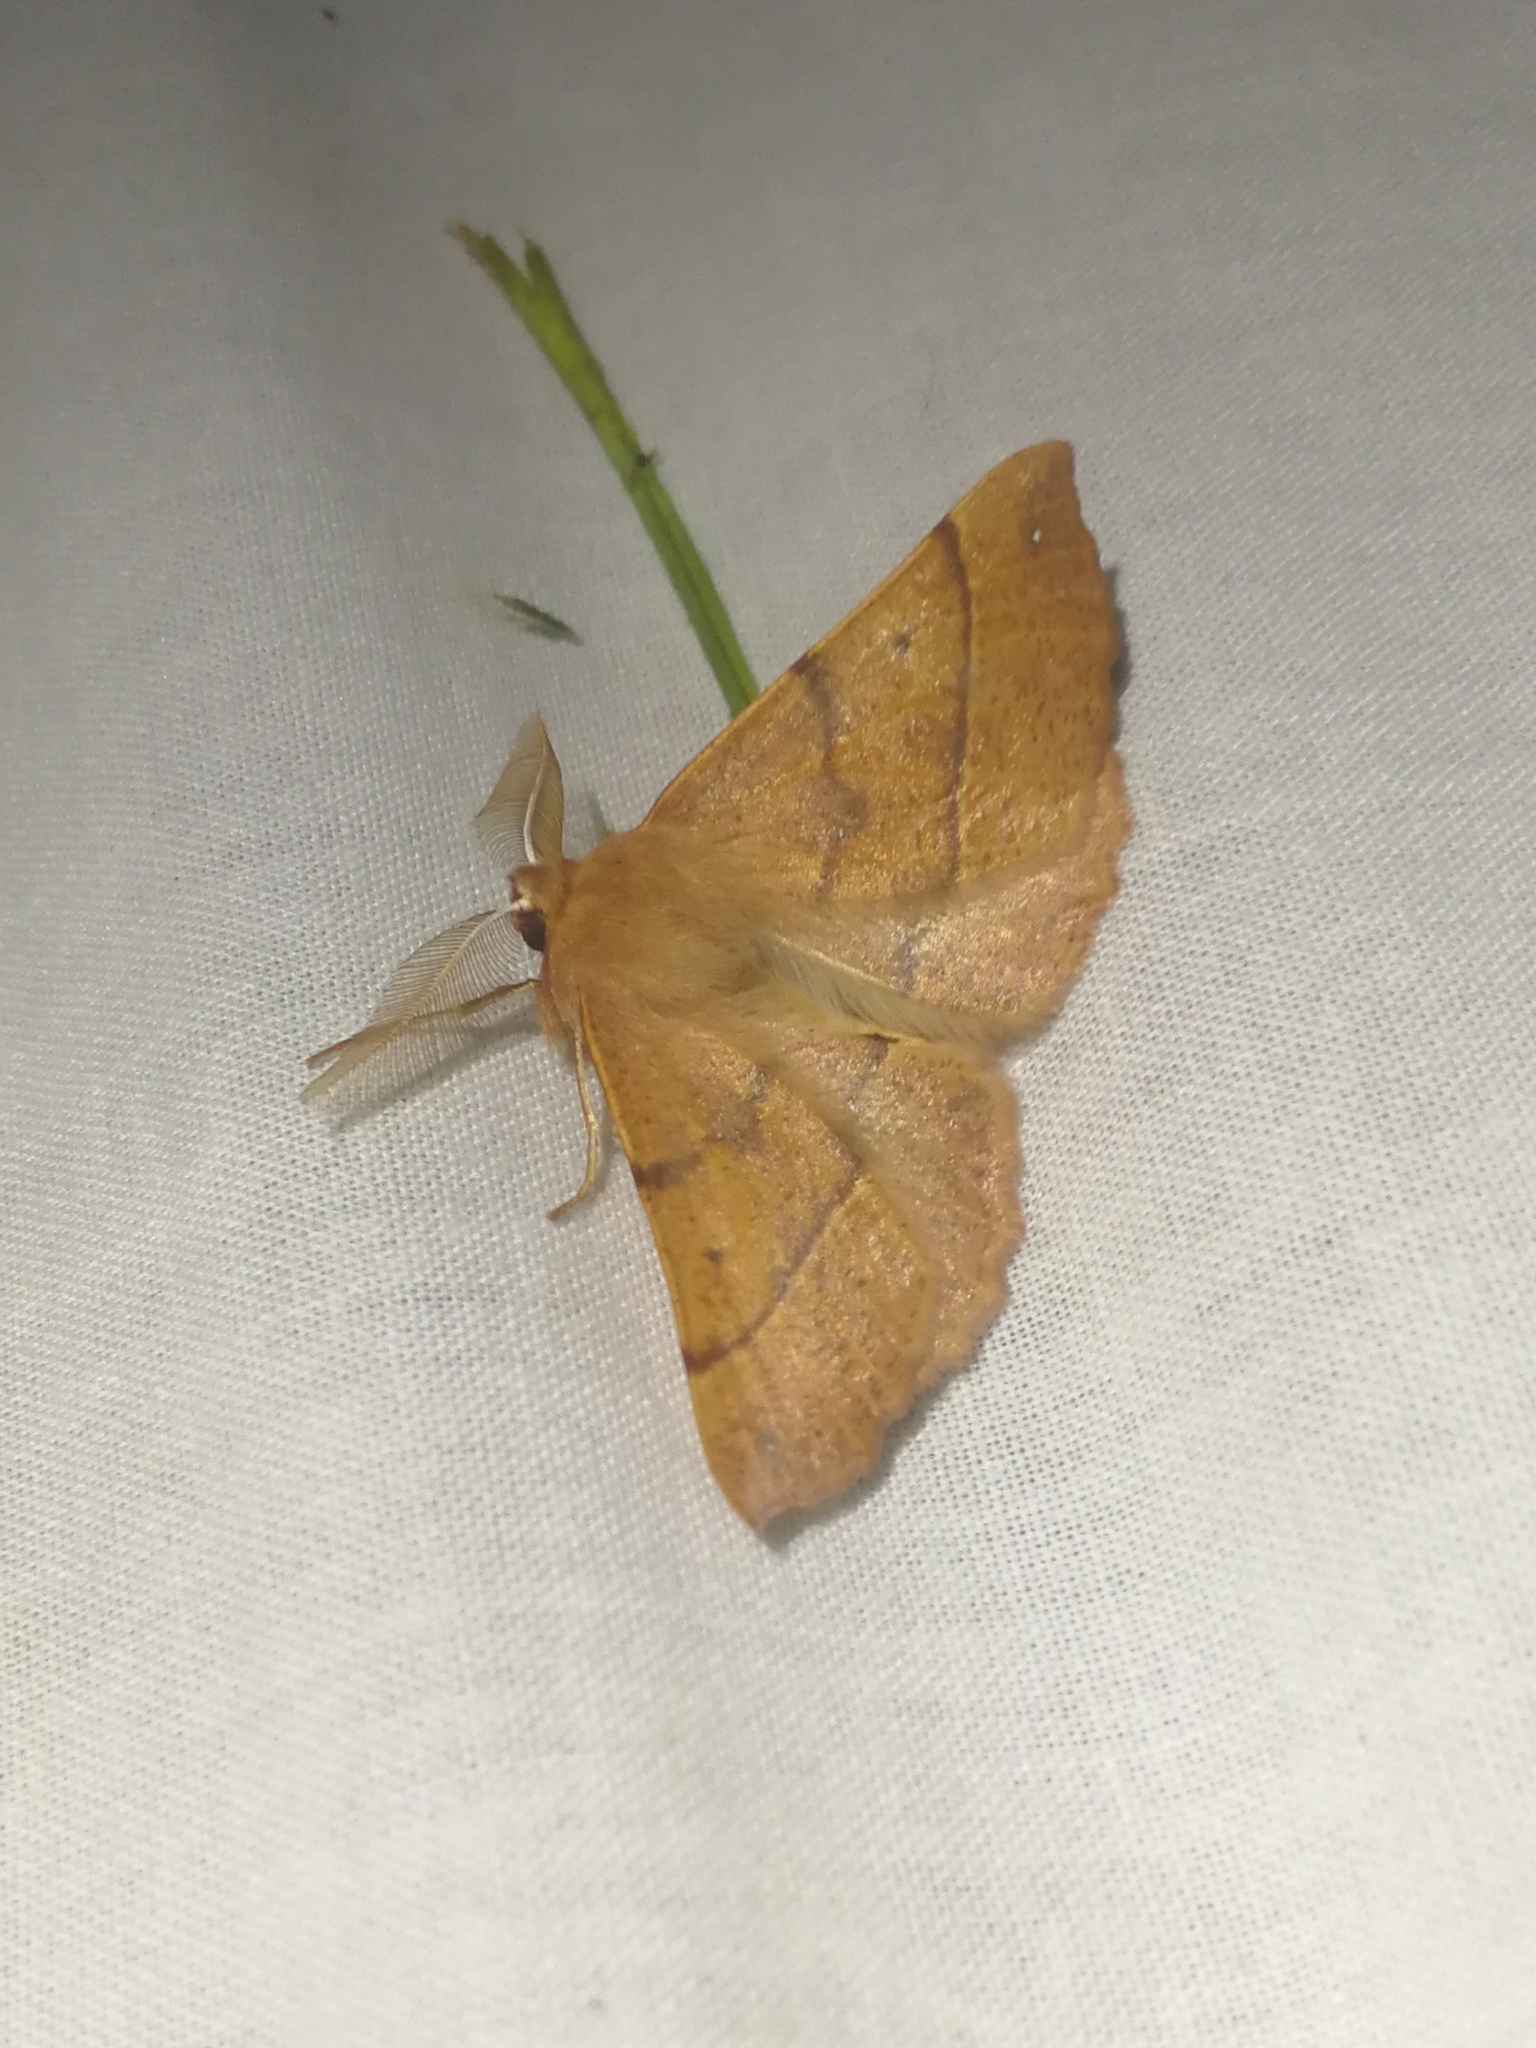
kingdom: Animalia
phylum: Arthropoda
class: Insecta
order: Lepidoptera
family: Geometridae
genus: Colotois
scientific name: Colotois pennaria
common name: Feathered thorn
